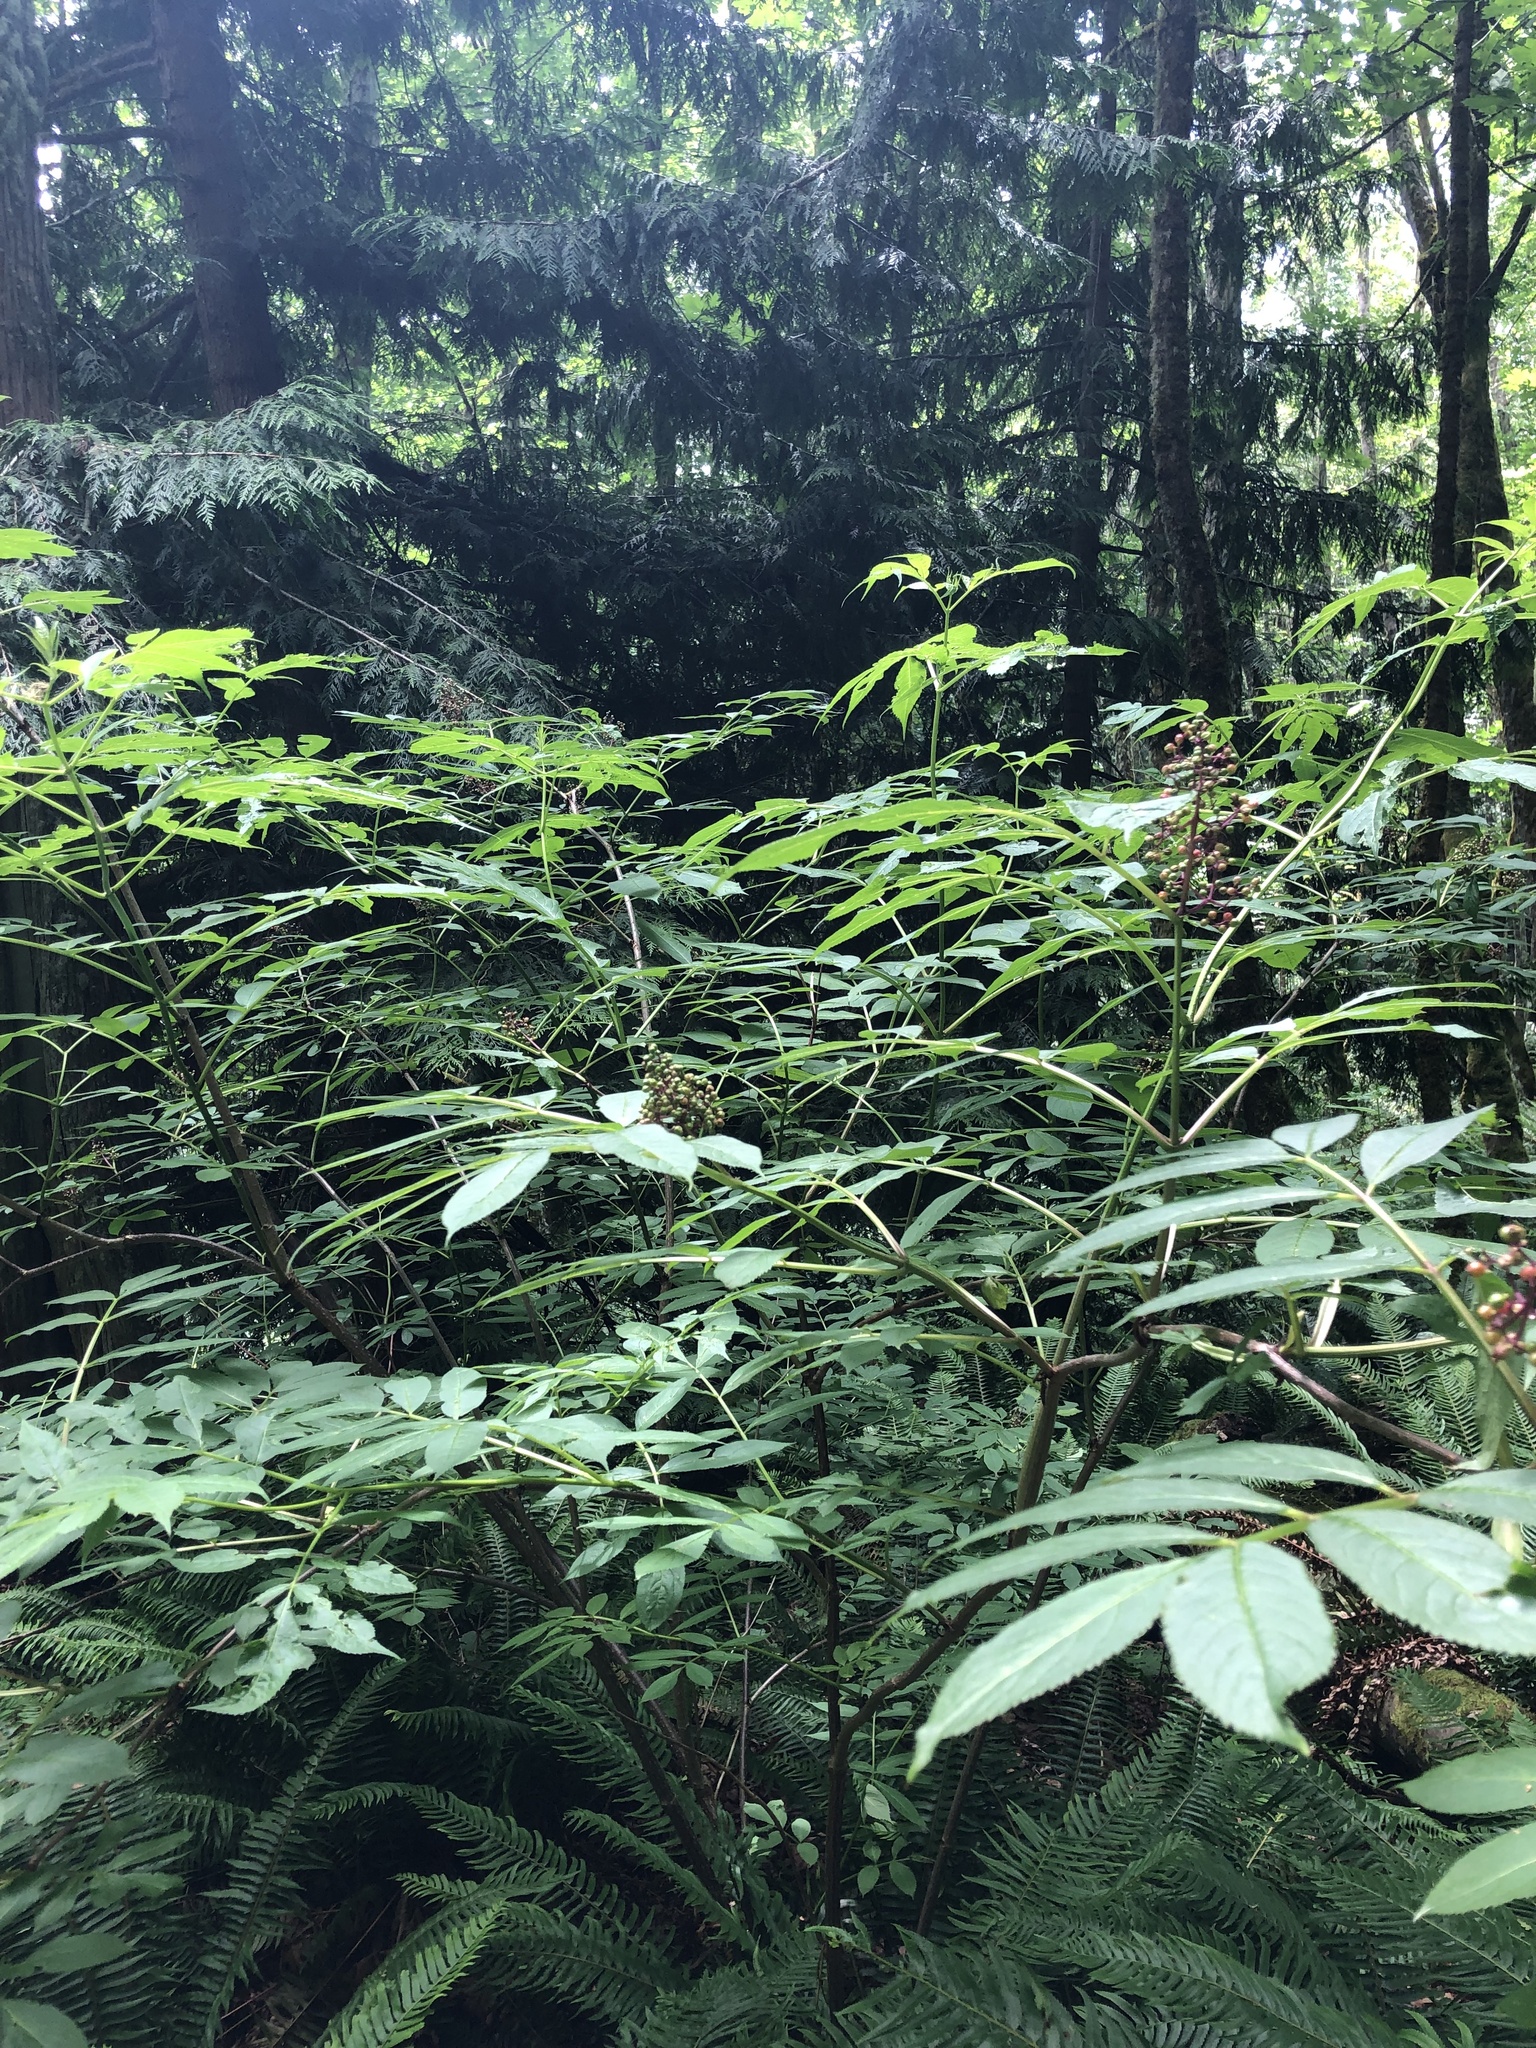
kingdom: Plantae
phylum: Tracheophyta
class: Magnoliopsida
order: Dipsacales
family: Viburnaceae
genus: Sambucus
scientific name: Sambucus racemosa
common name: Red-berried elder
